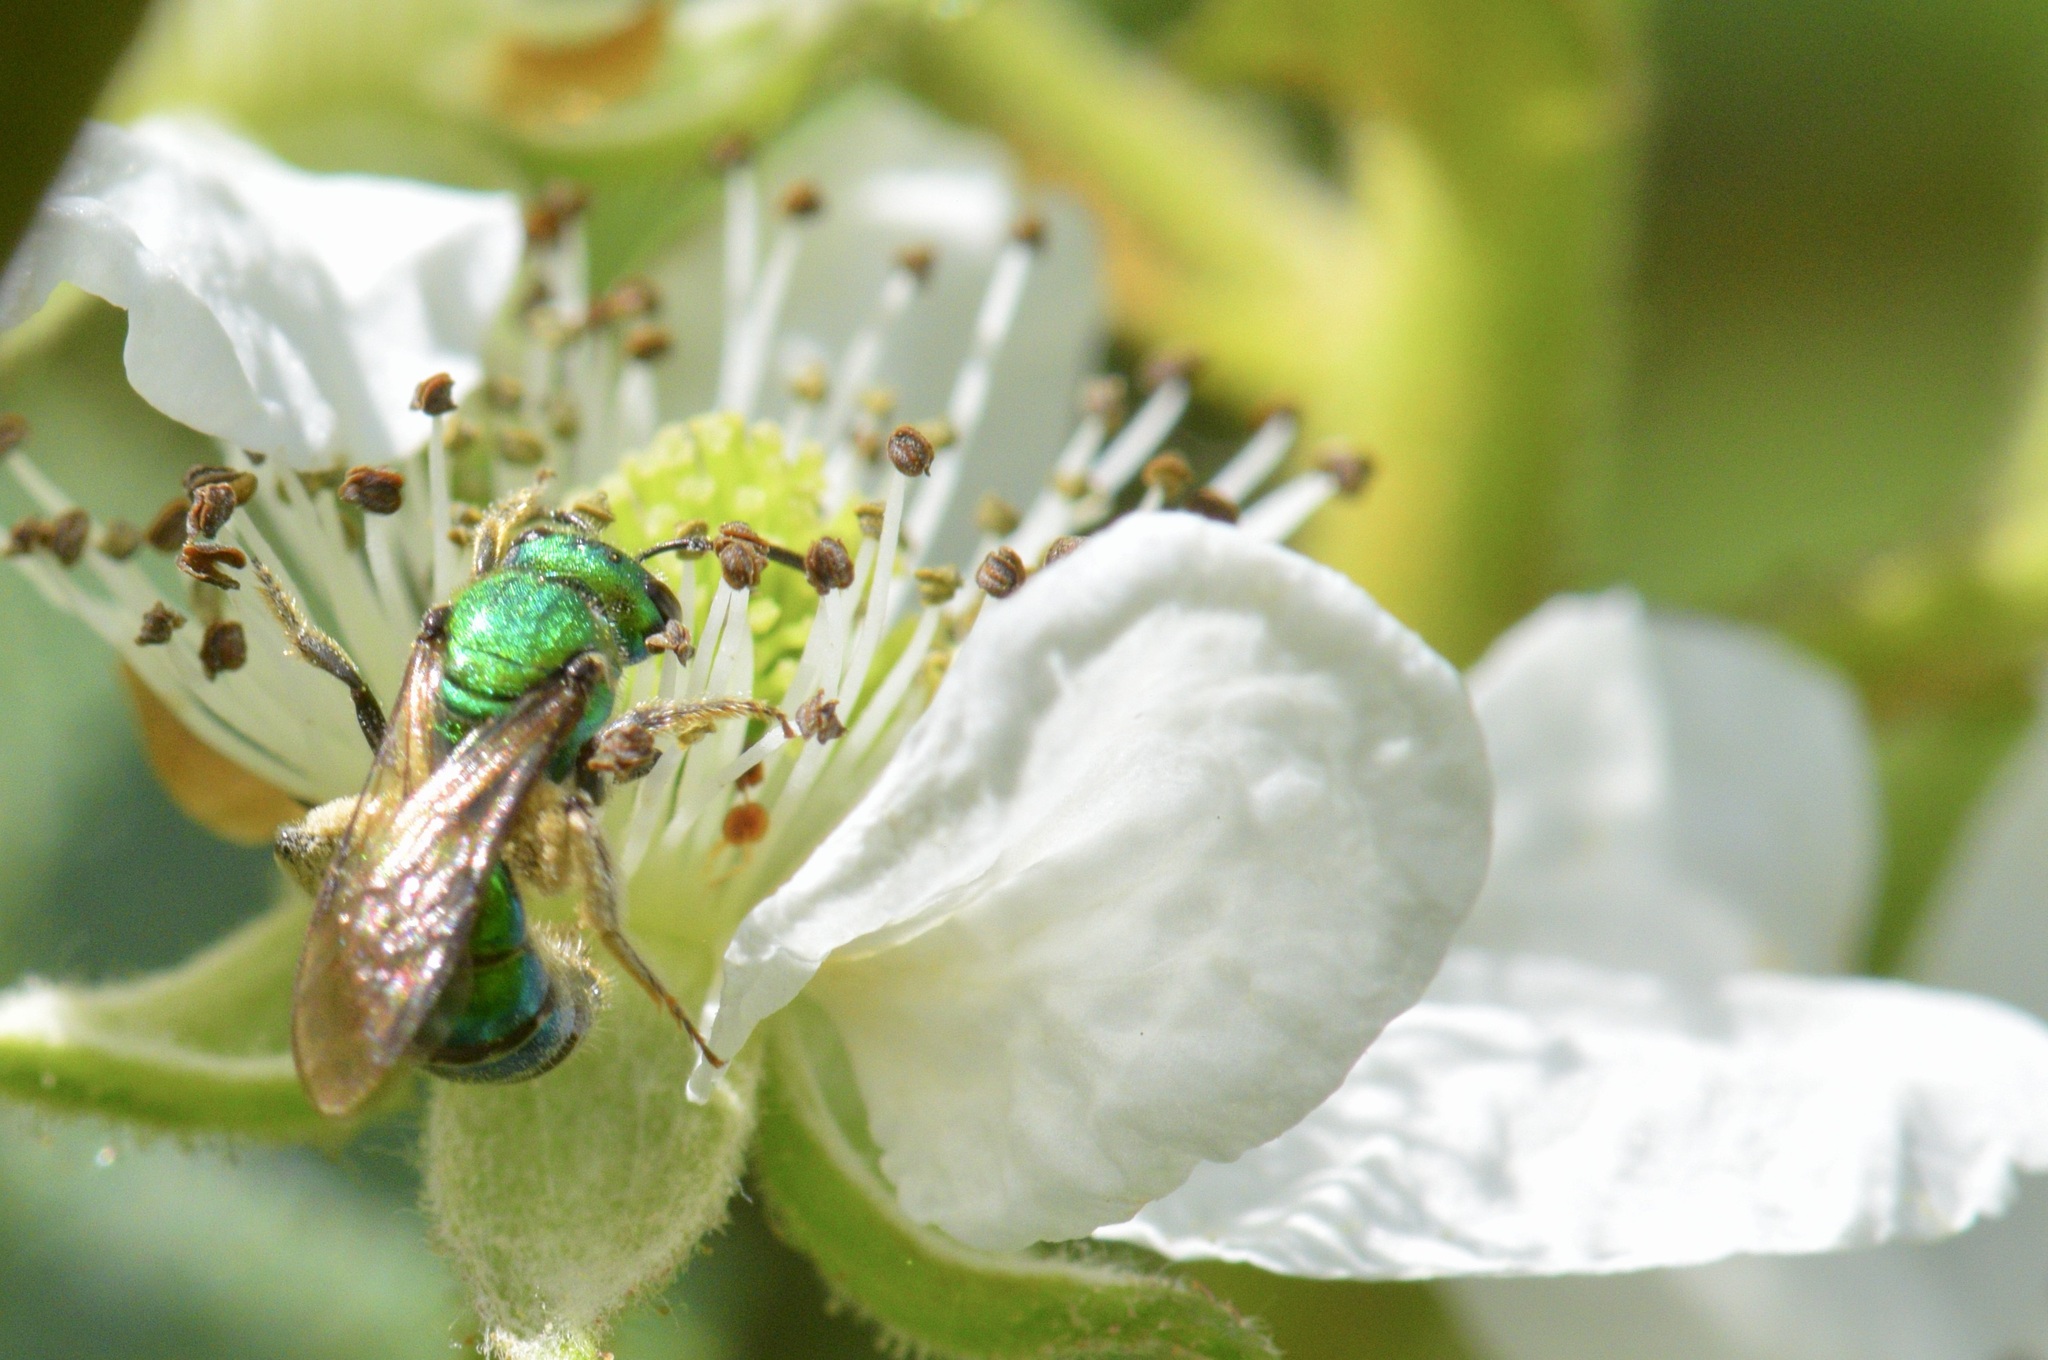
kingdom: Animalia
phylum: Arthropoda
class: Insecta
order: Hymenoptera
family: Halictidae
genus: Augochlora
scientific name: Augochlora pura
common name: Pure green sweat bee
